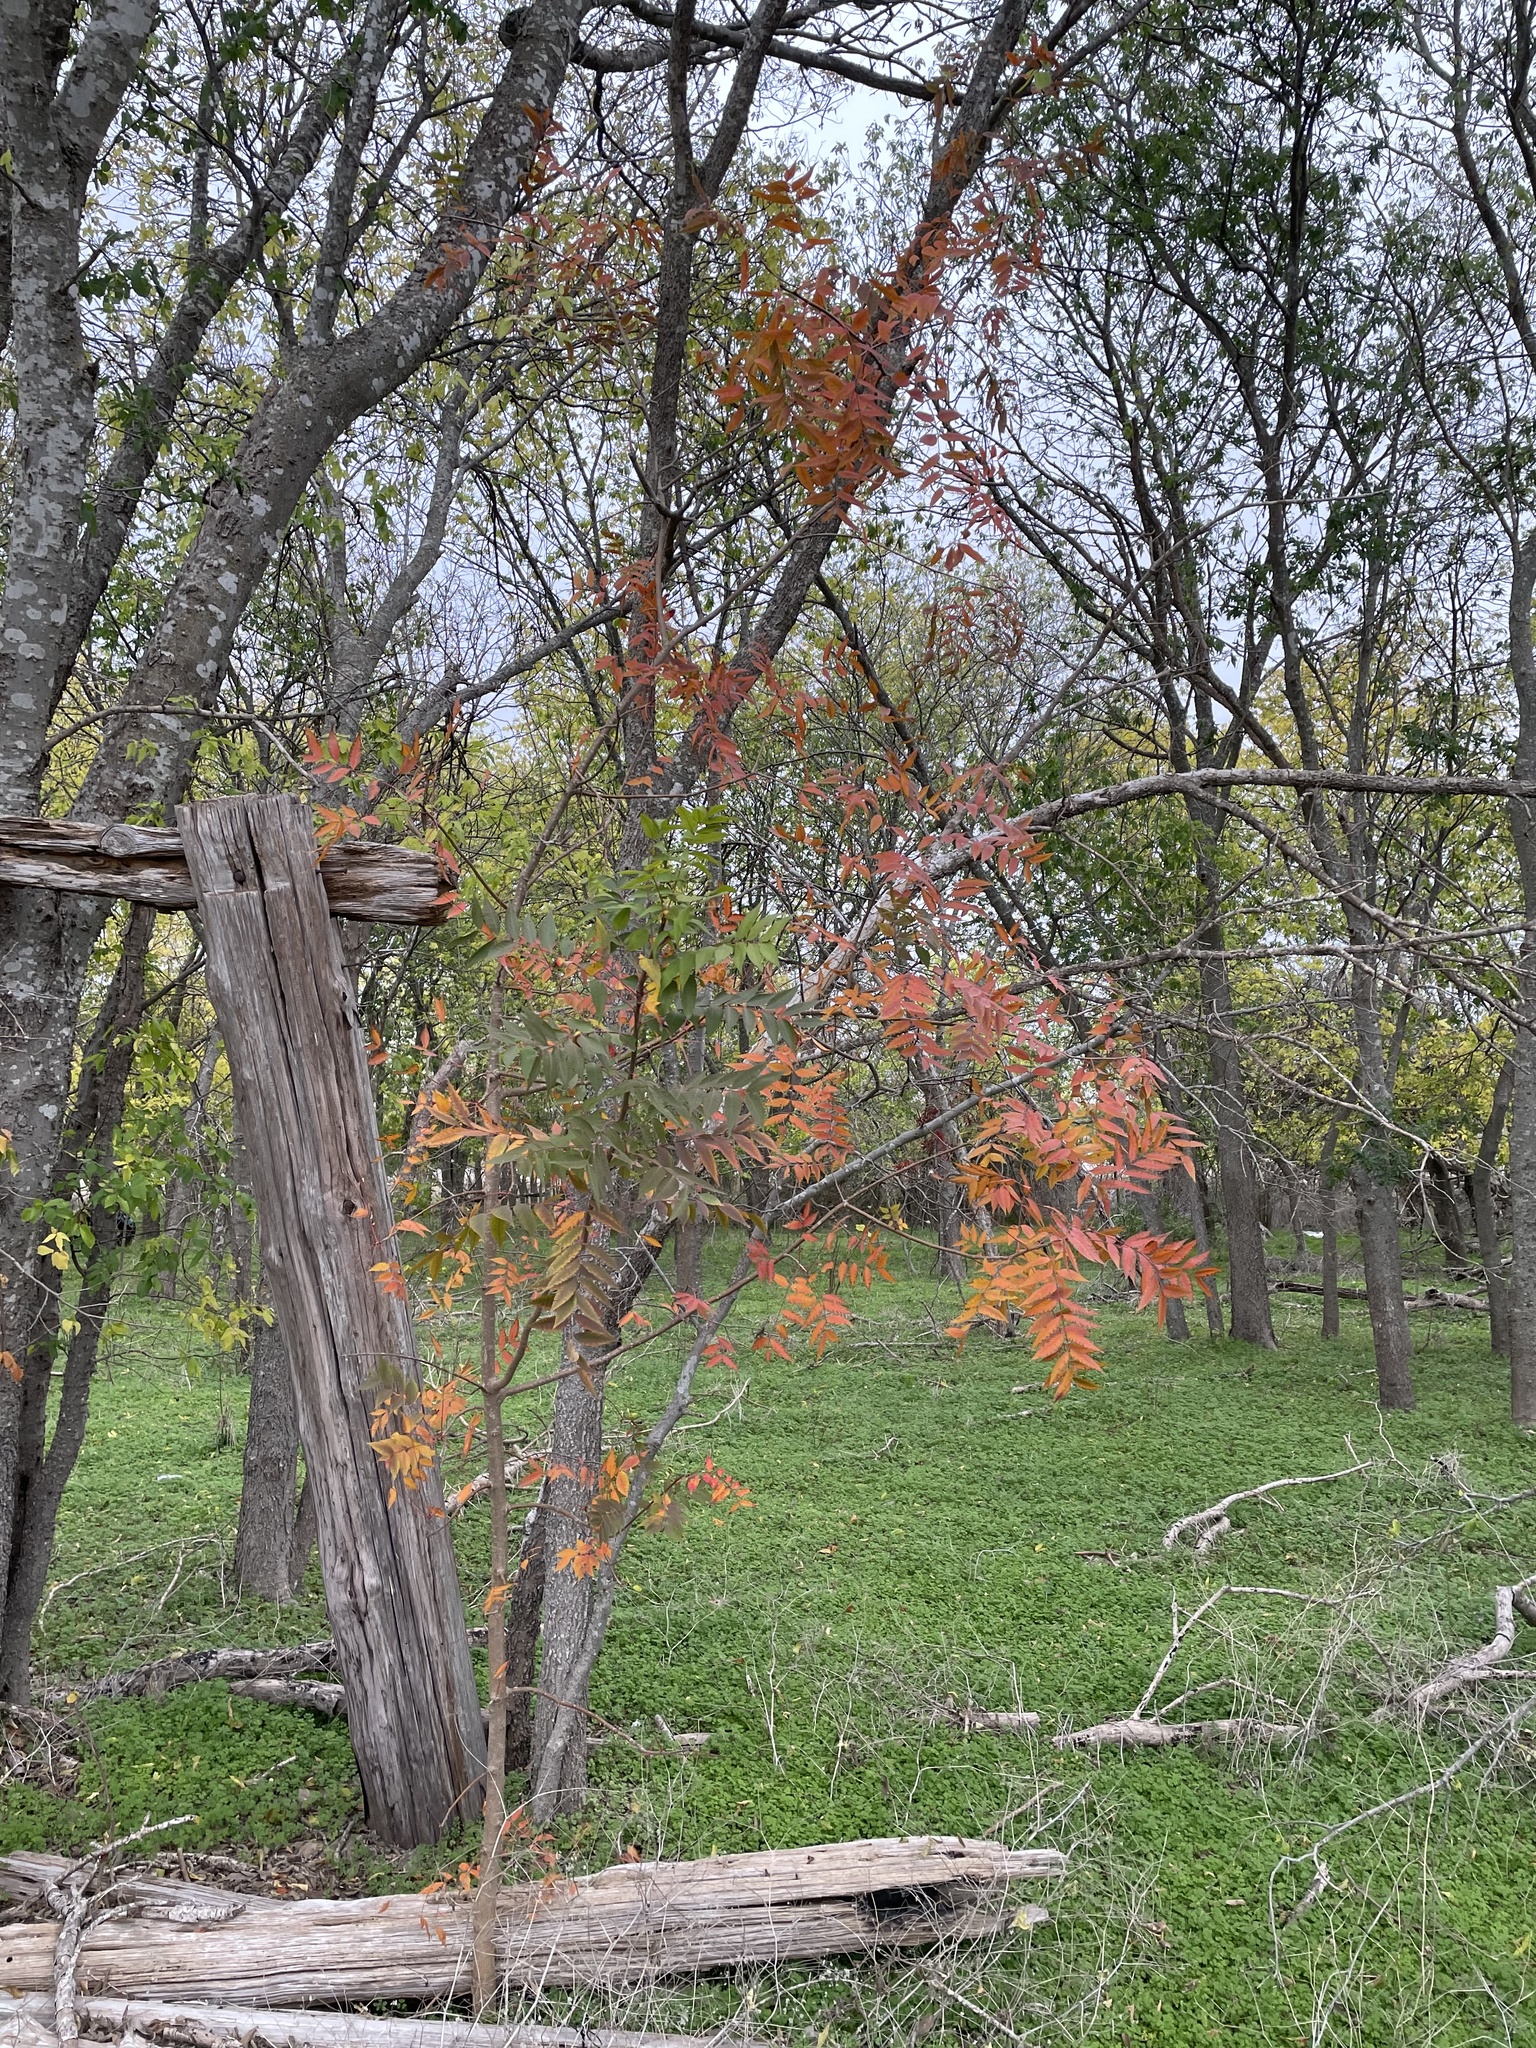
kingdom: Plantae
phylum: Tracheophyta
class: Magnoliopsida
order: Sapindales
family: Anacardiaceae
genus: Pistacia
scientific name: Pistacia chinensis
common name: Chinese pistache
